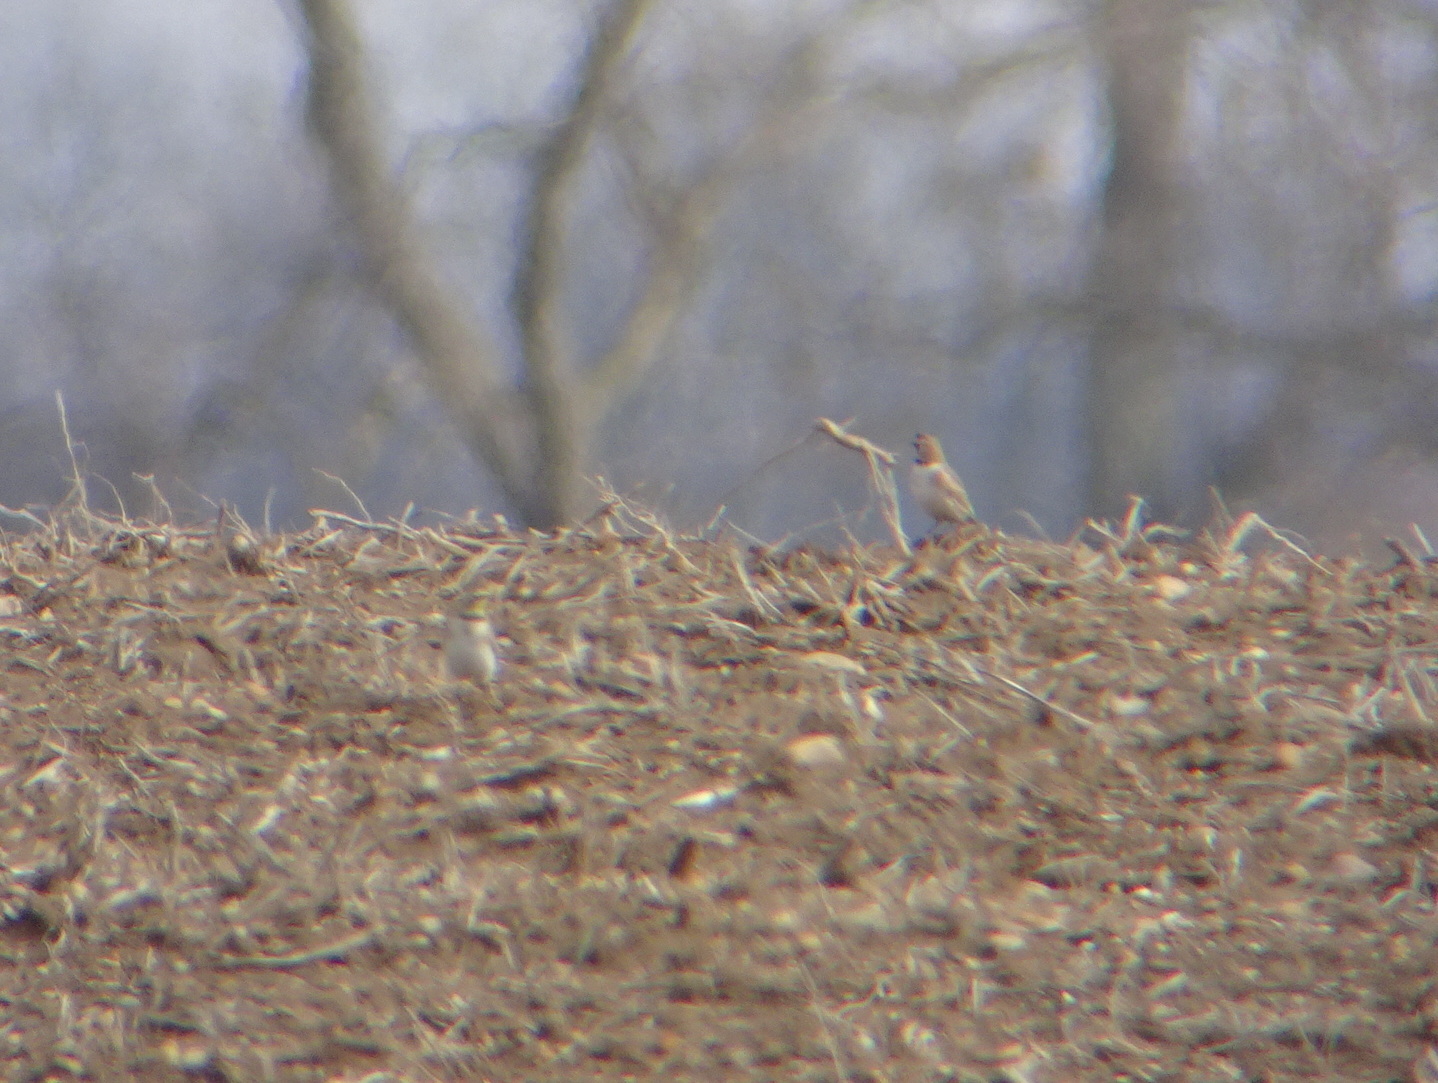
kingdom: Animalia
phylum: Chordata
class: Aves
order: Passeriformes
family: Alaudidae
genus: Eremophila
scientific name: Eremophila alpestris
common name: Horned lark
